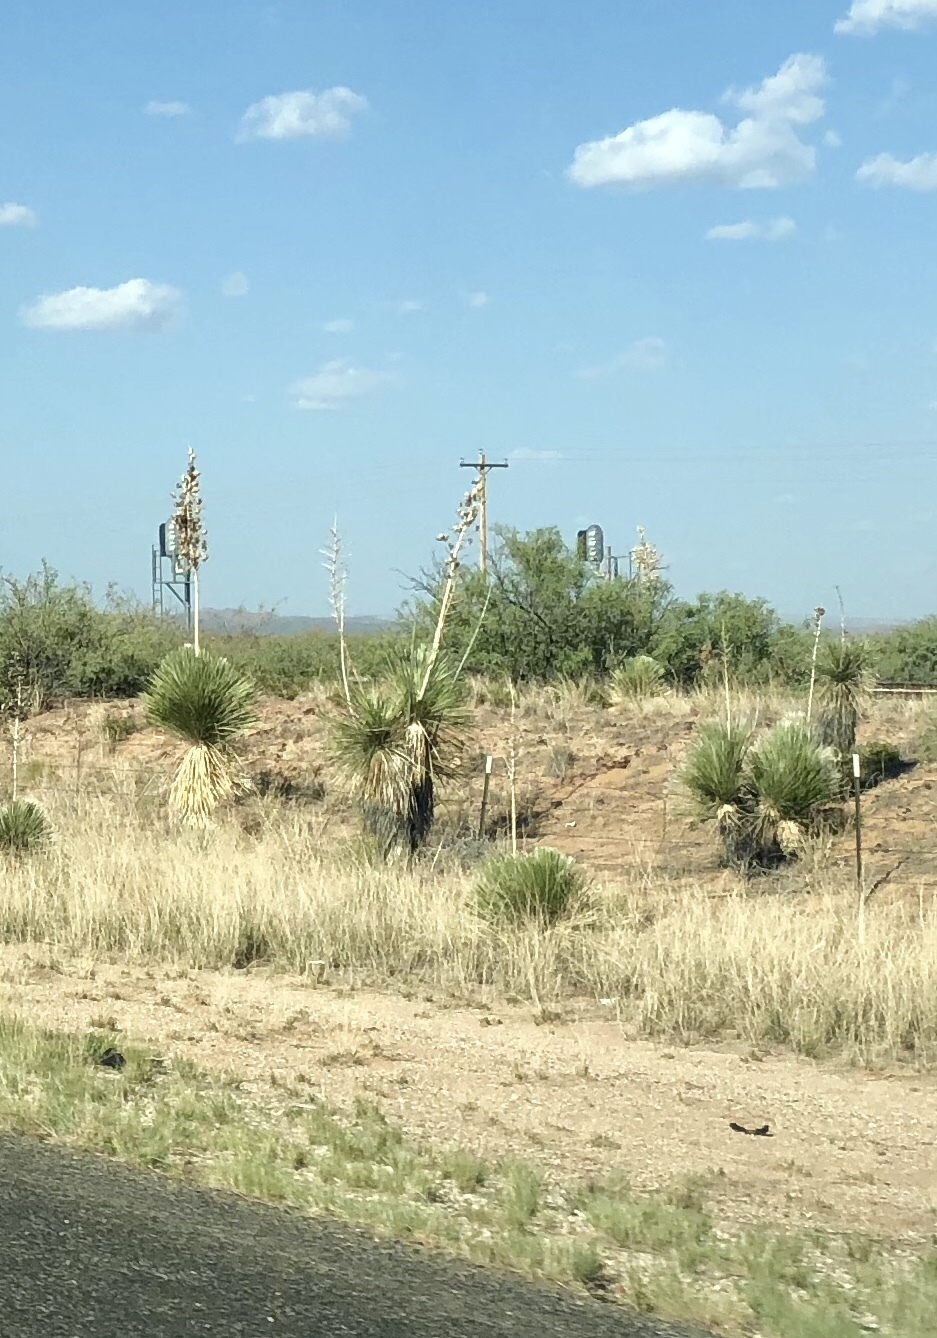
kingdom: Plantae
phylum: Tracheophyta
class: Liliopsida
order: Asparagales
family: Asparagaceae
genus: Yucca
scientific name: Yucca elata
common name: Palmella
